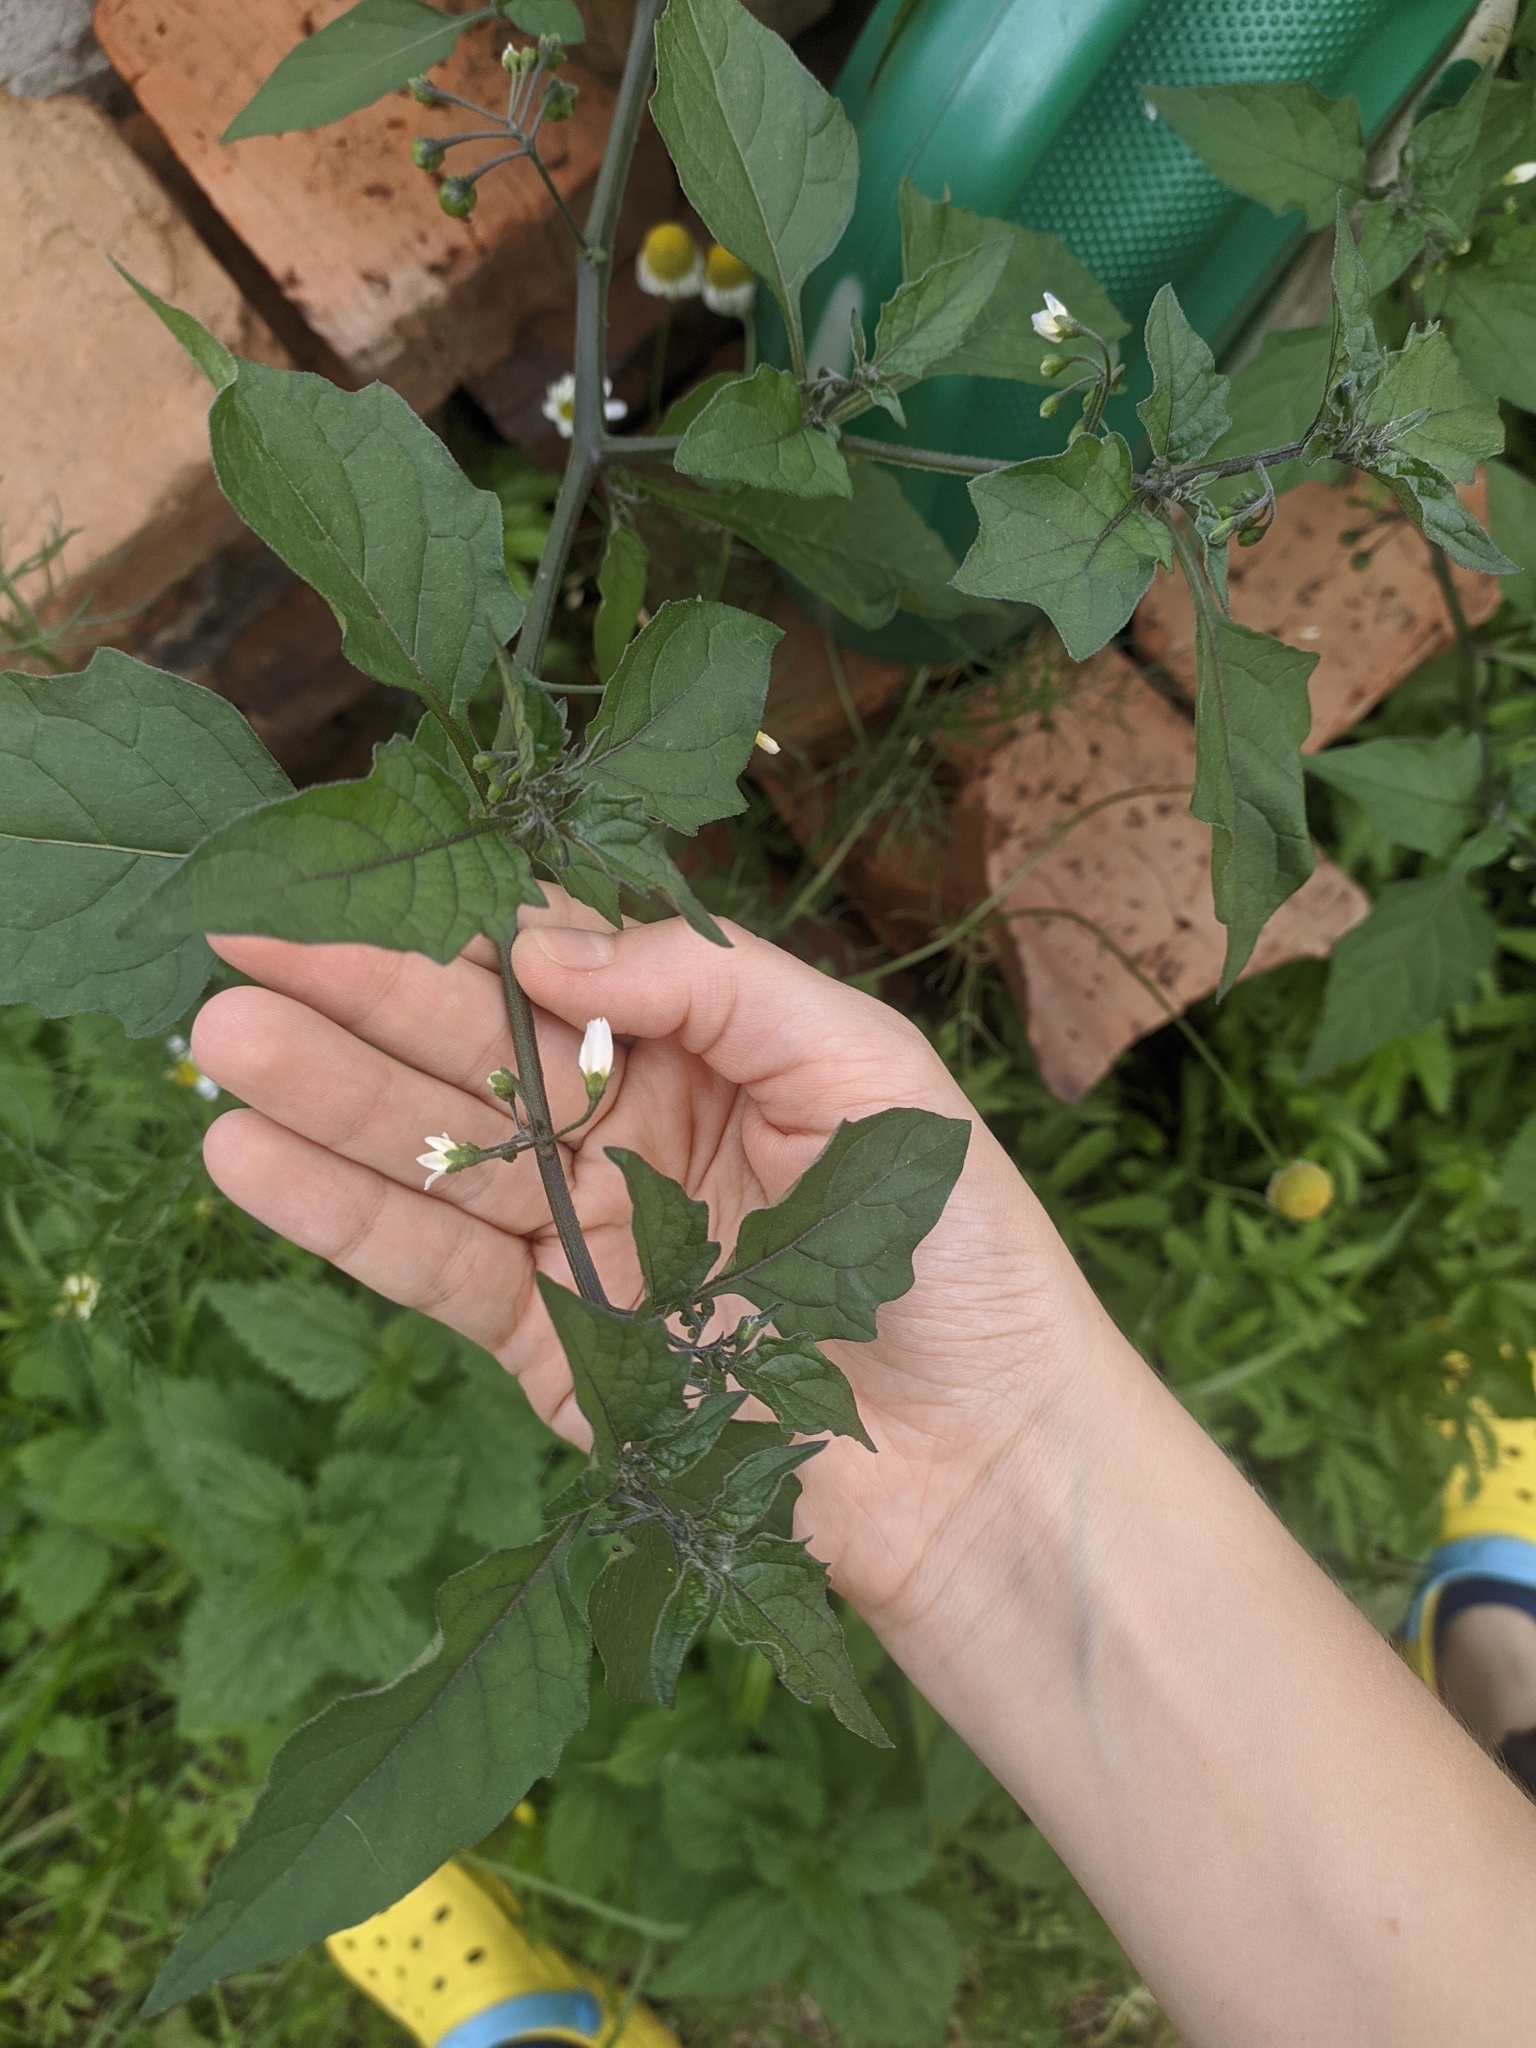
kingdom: Plantae
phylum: Tracheophyta
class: Magnoliopsida
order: Solanales
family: Solanaceae
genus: Solanum
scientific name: Solanum nigrum
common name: Black nightshade
